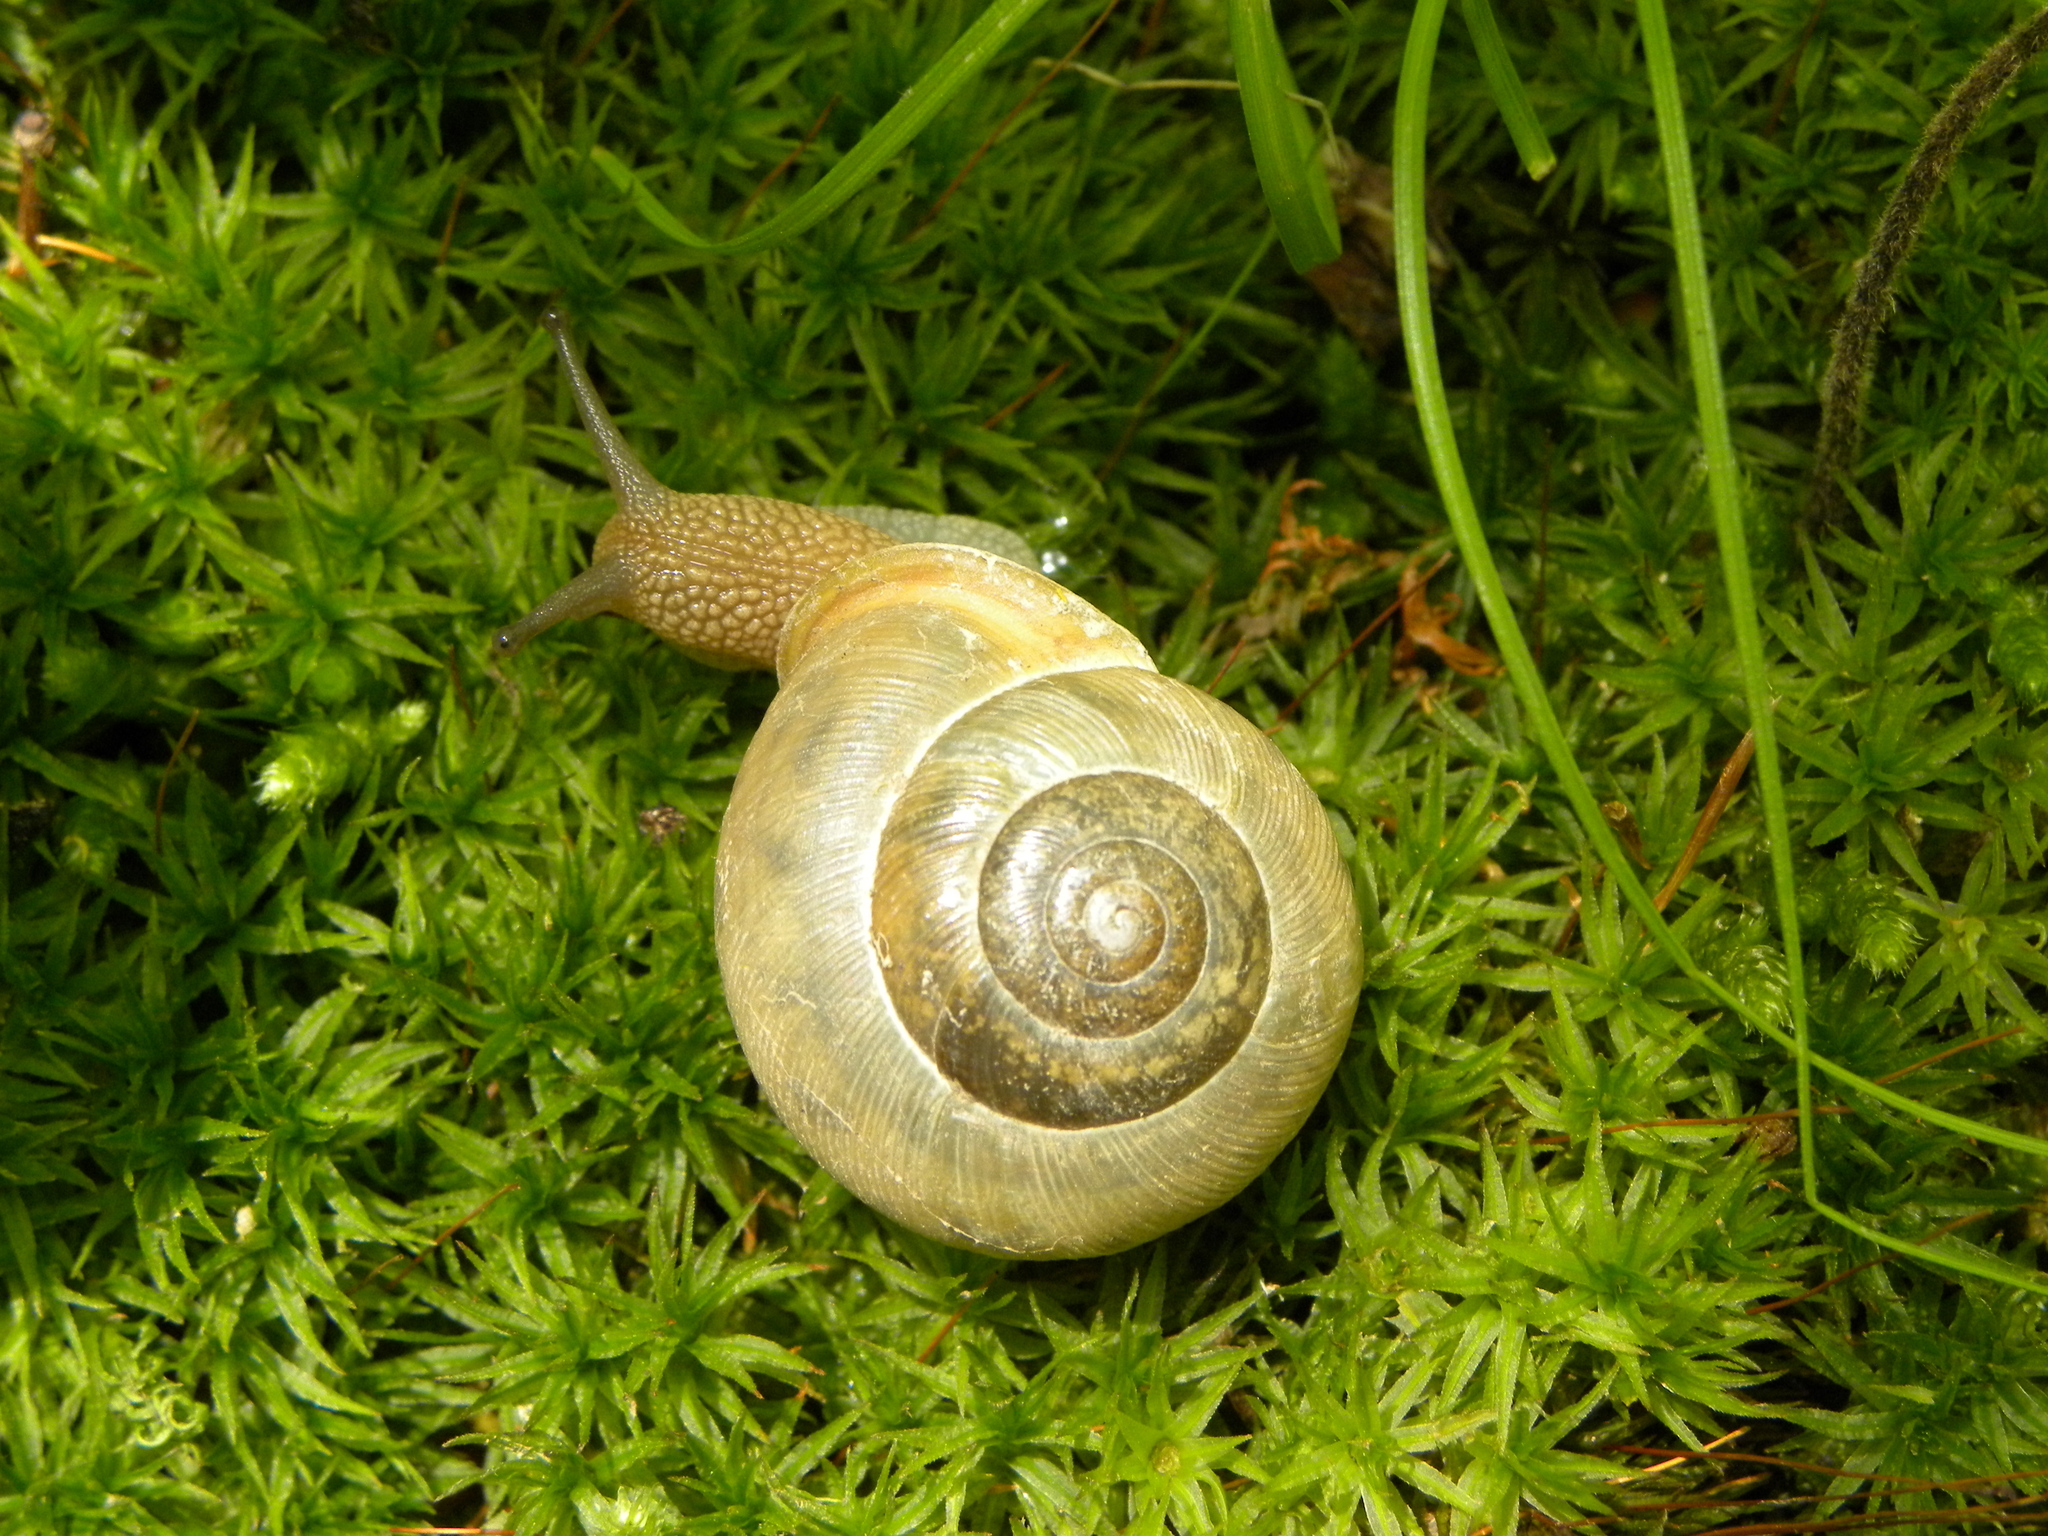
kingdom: Animalia
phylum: Mollusca
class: Gastropoda
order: Stylommatophora
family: Polygyridae
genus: Mesodon
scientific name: Mesodon thyroidus
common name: White-lip globe
